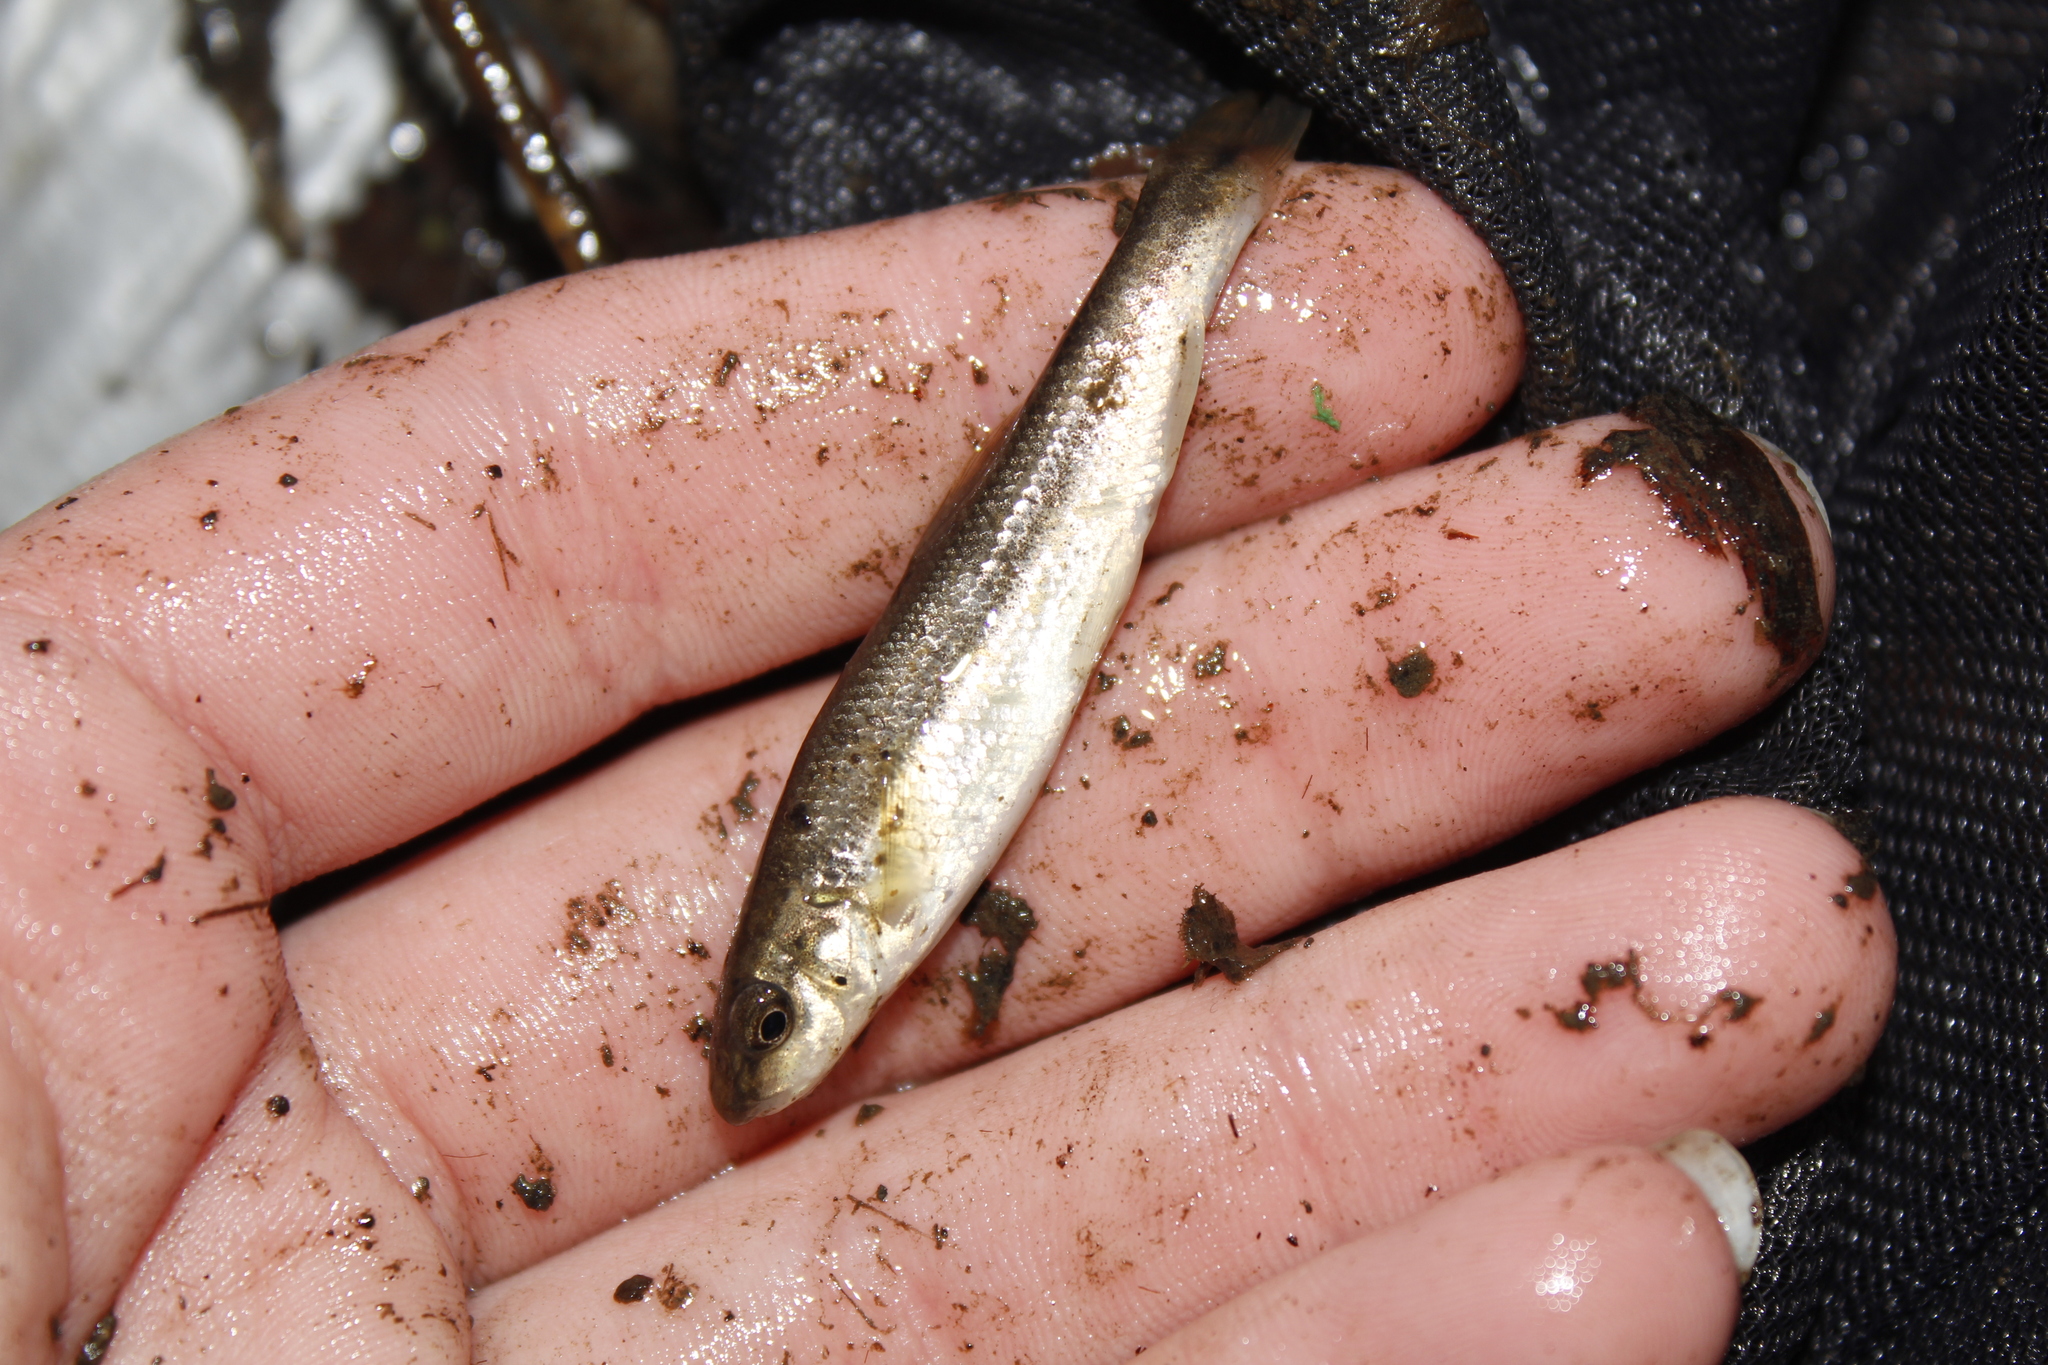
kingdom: Animalia
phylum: Chordata
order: Cypriniformes
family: Cyprinidae
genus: Campostoma
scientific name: Campostoma anomalum
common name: Central stoneroller
